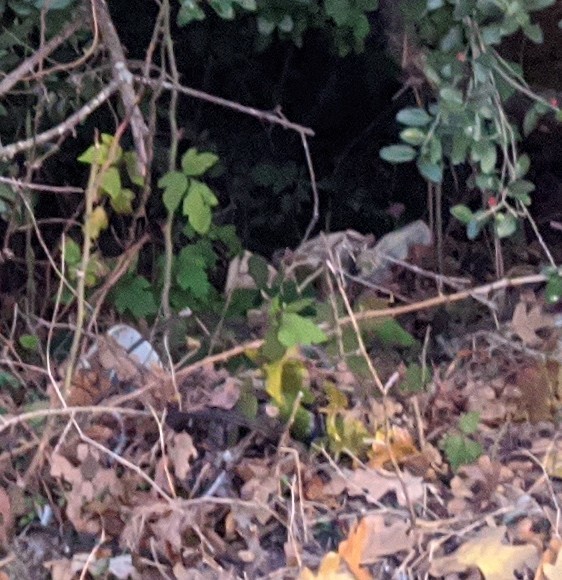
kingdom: Plantae
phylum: Tracheophyta
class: Magnoliopsida
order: Sapindales
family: Anacardiaceae
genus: Toxicodendron
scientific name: Toxicodendron radicans
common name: Poison ivy
